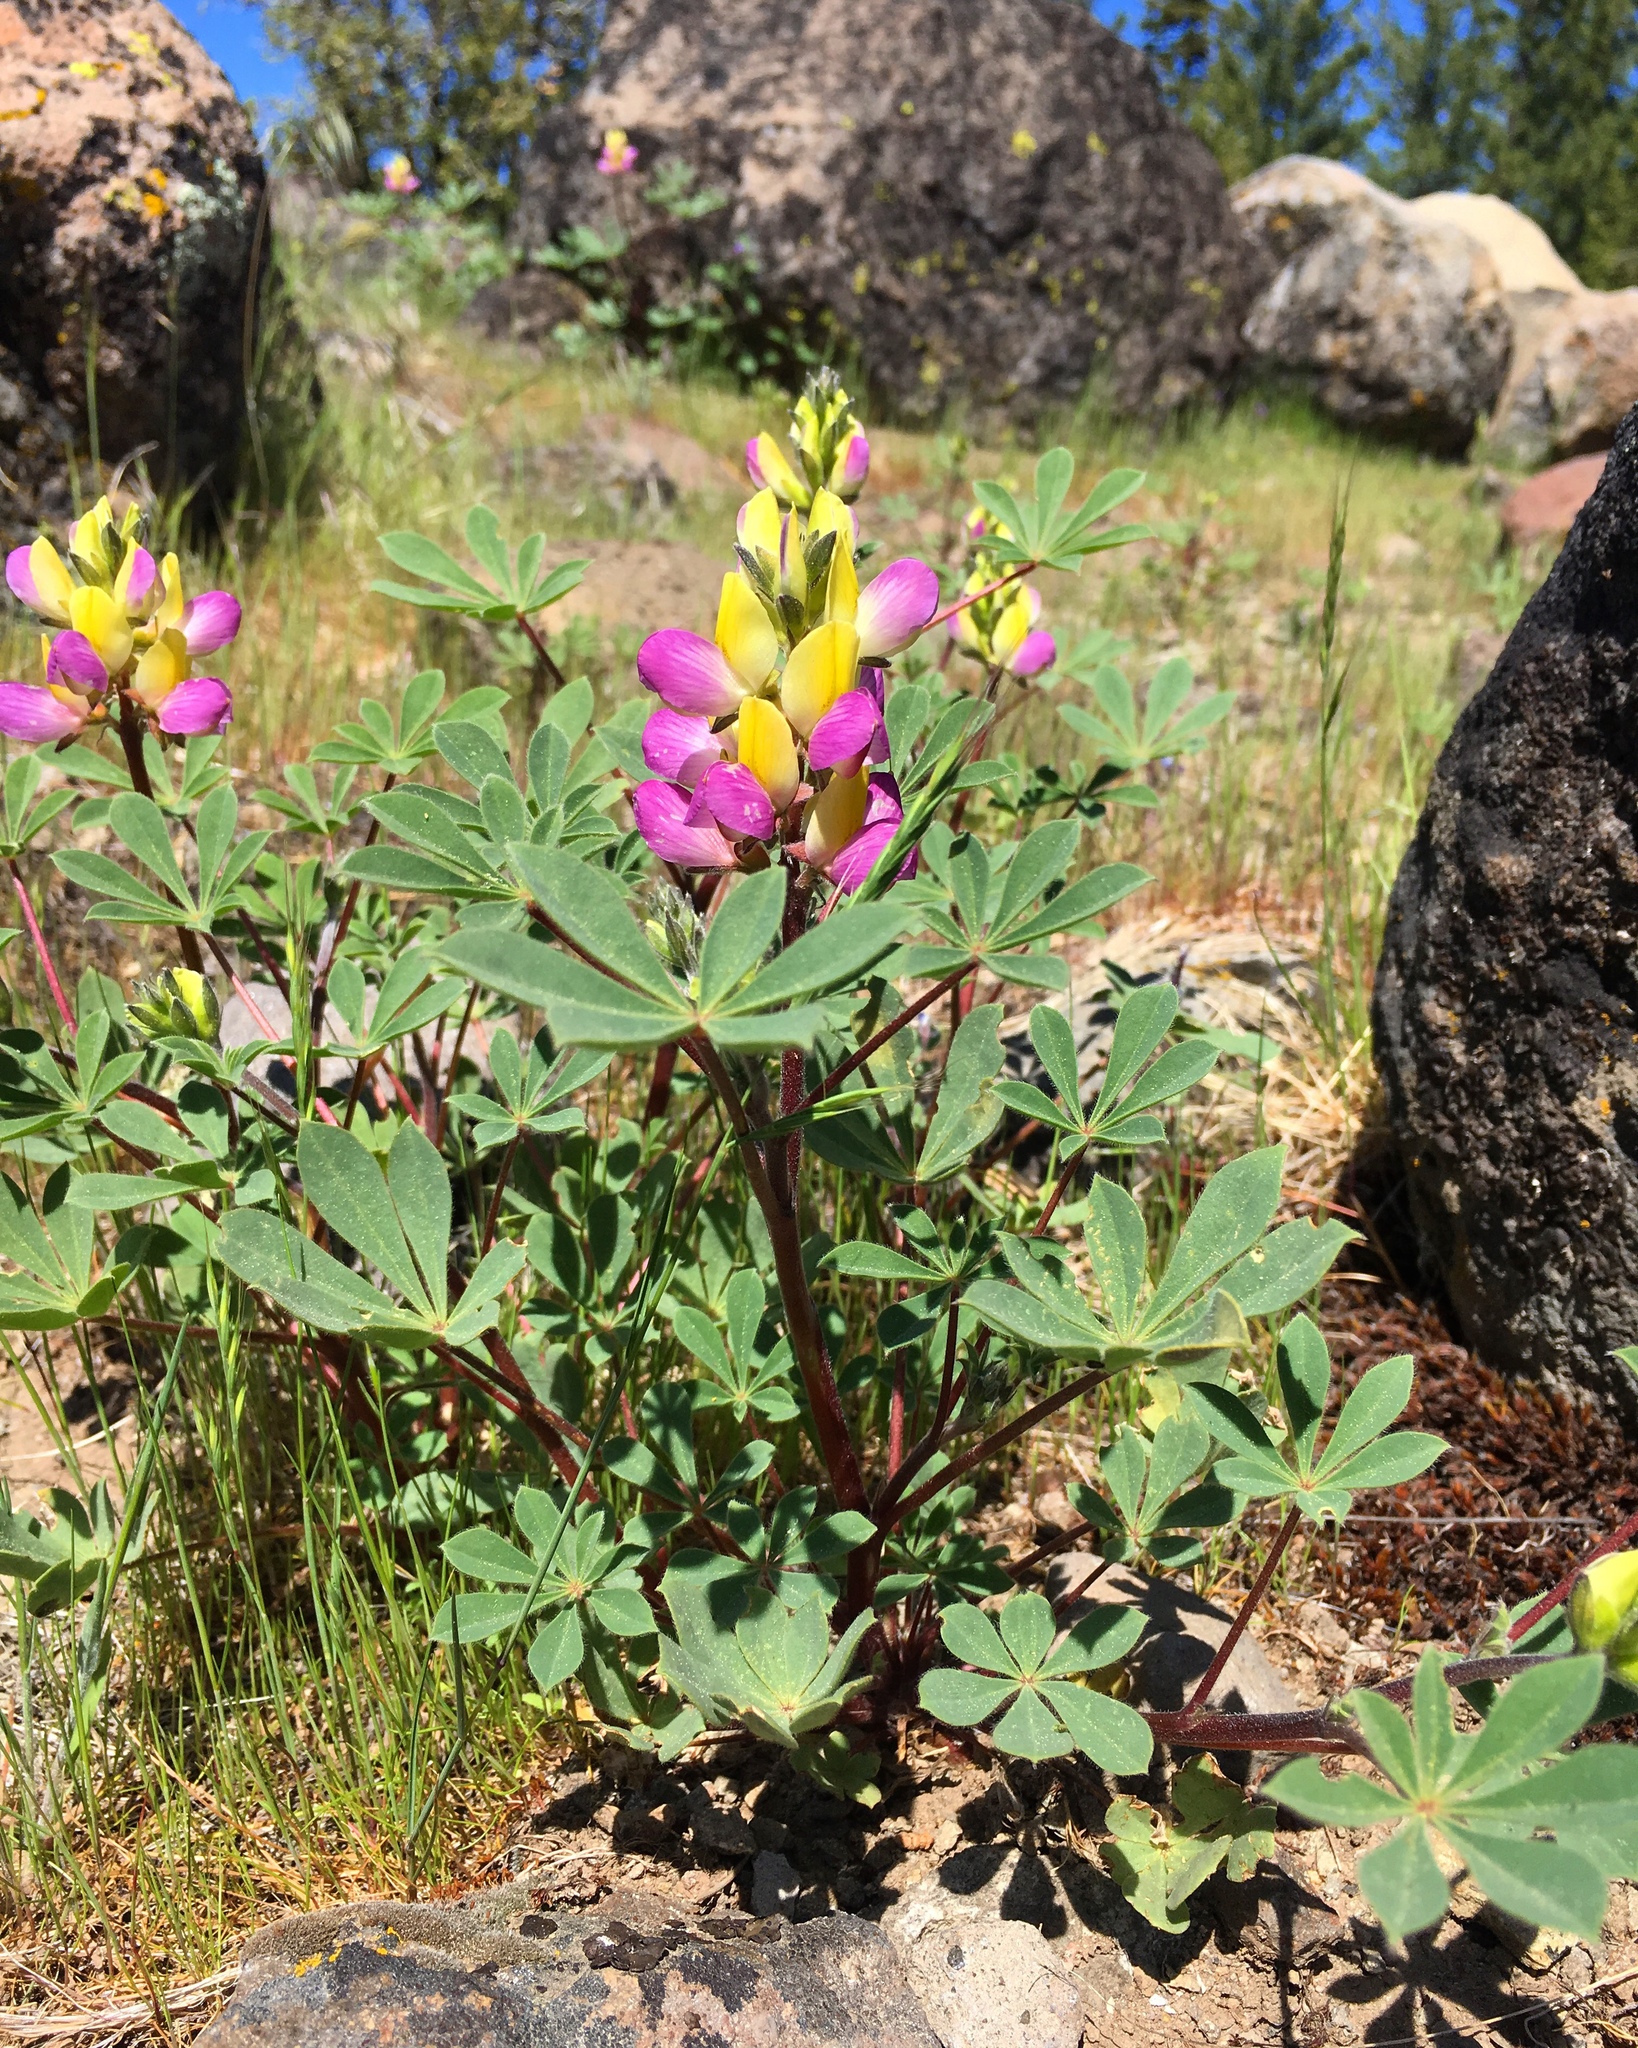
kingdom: Plantae
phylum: Tracheophyta
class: Magnoliopsida
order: Fabales
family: Fabaceae
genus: Lupinus
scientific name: Lupinus stiversii
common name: Harlequin lupine
